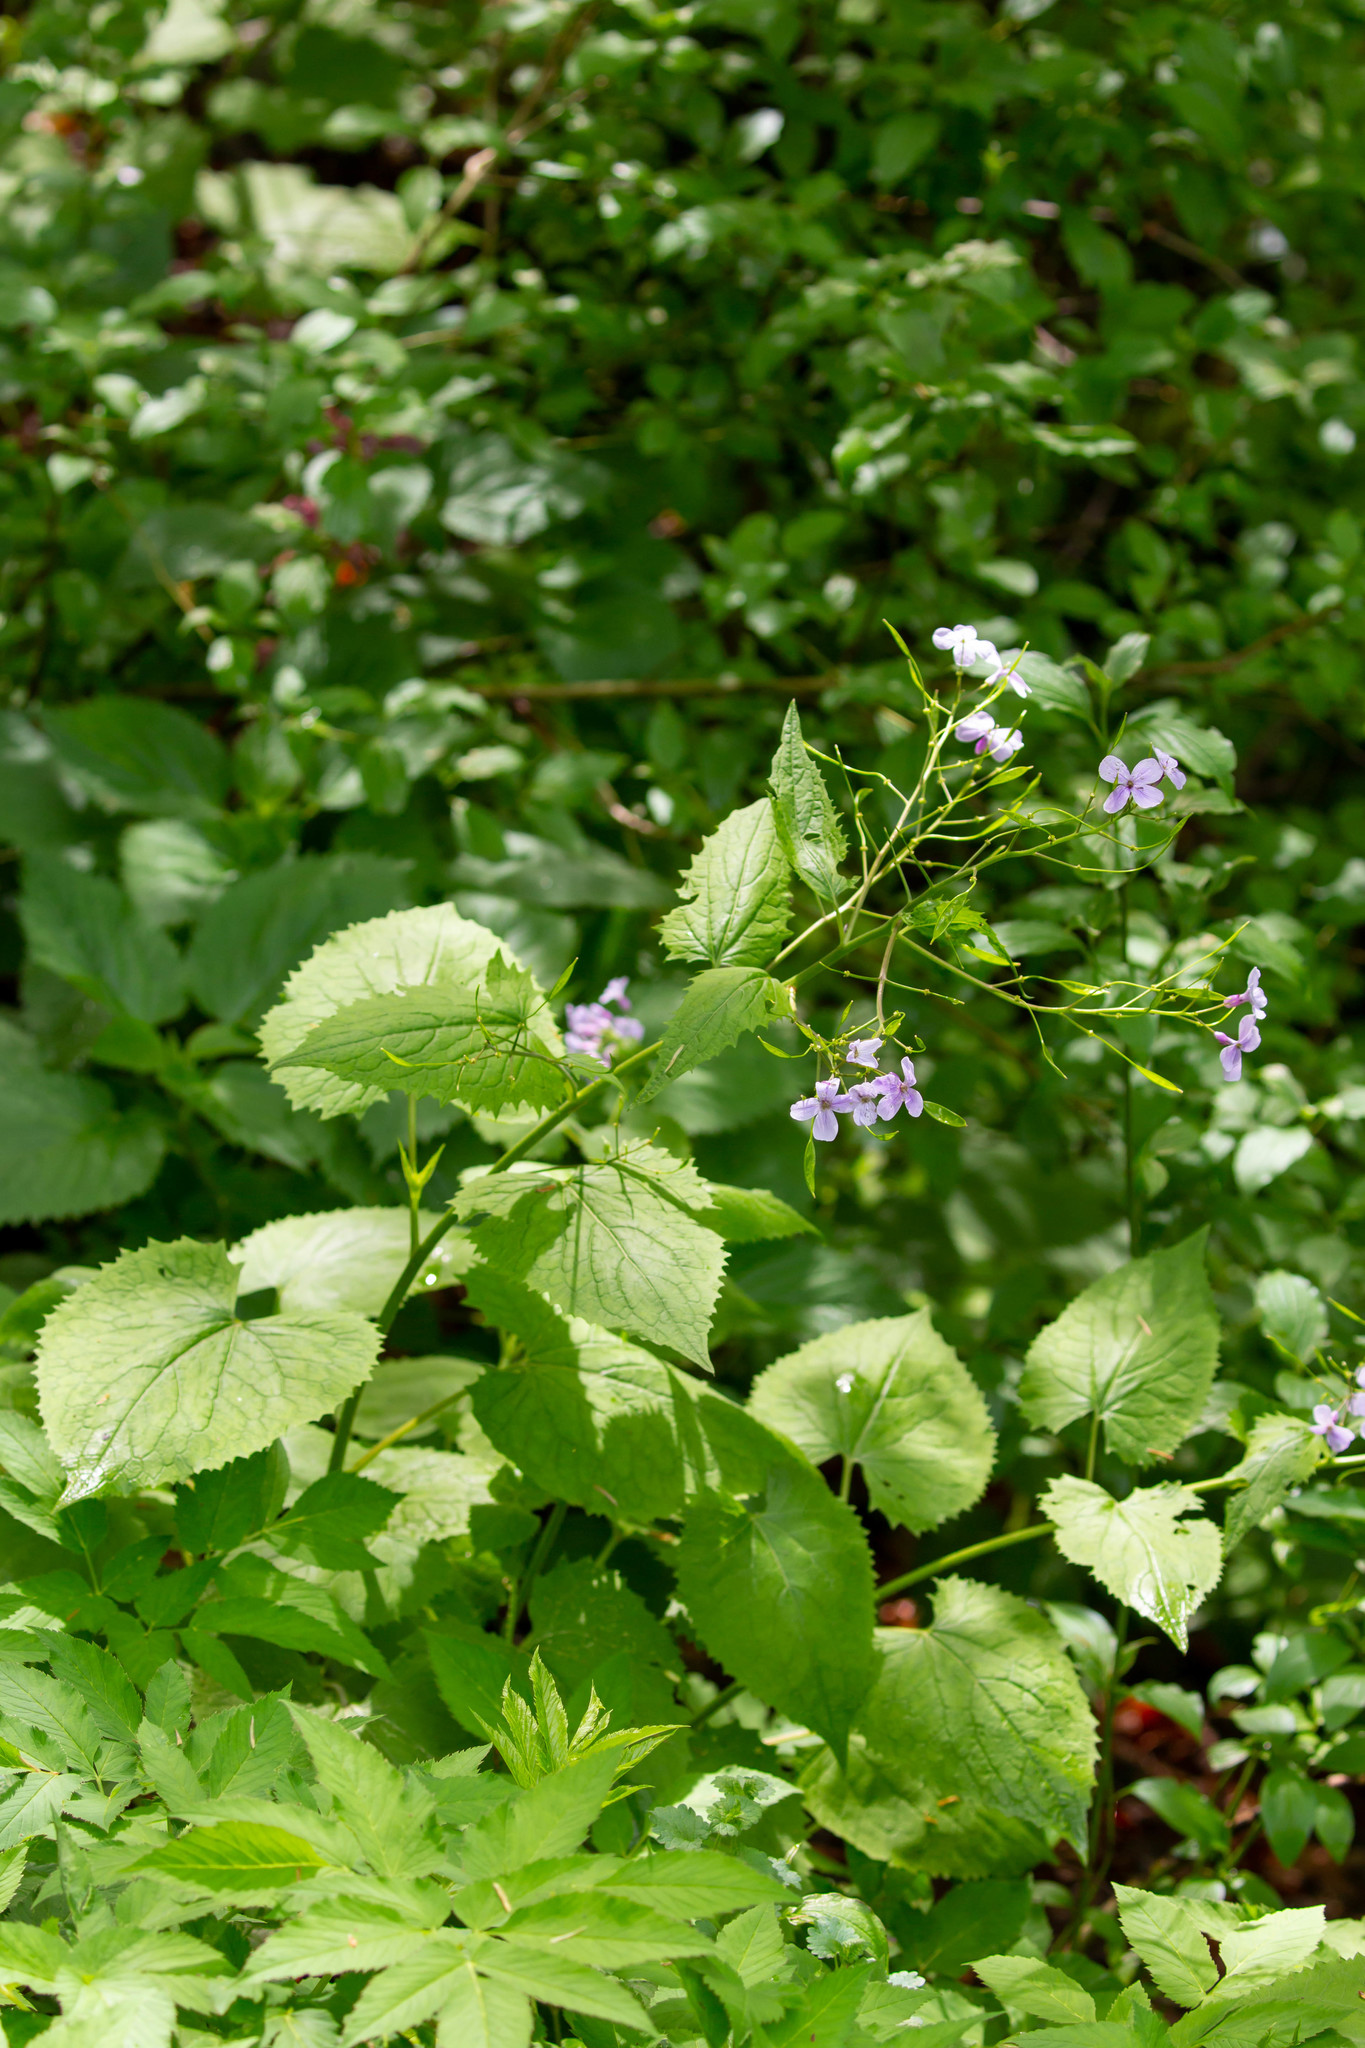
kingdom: Plantae
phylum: Tracheophyta
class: Magnoliopsida
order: Brassicales
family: Brassicaceae
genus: Lunaria
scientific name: Lunaria rediviva
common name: Perennial honesty
